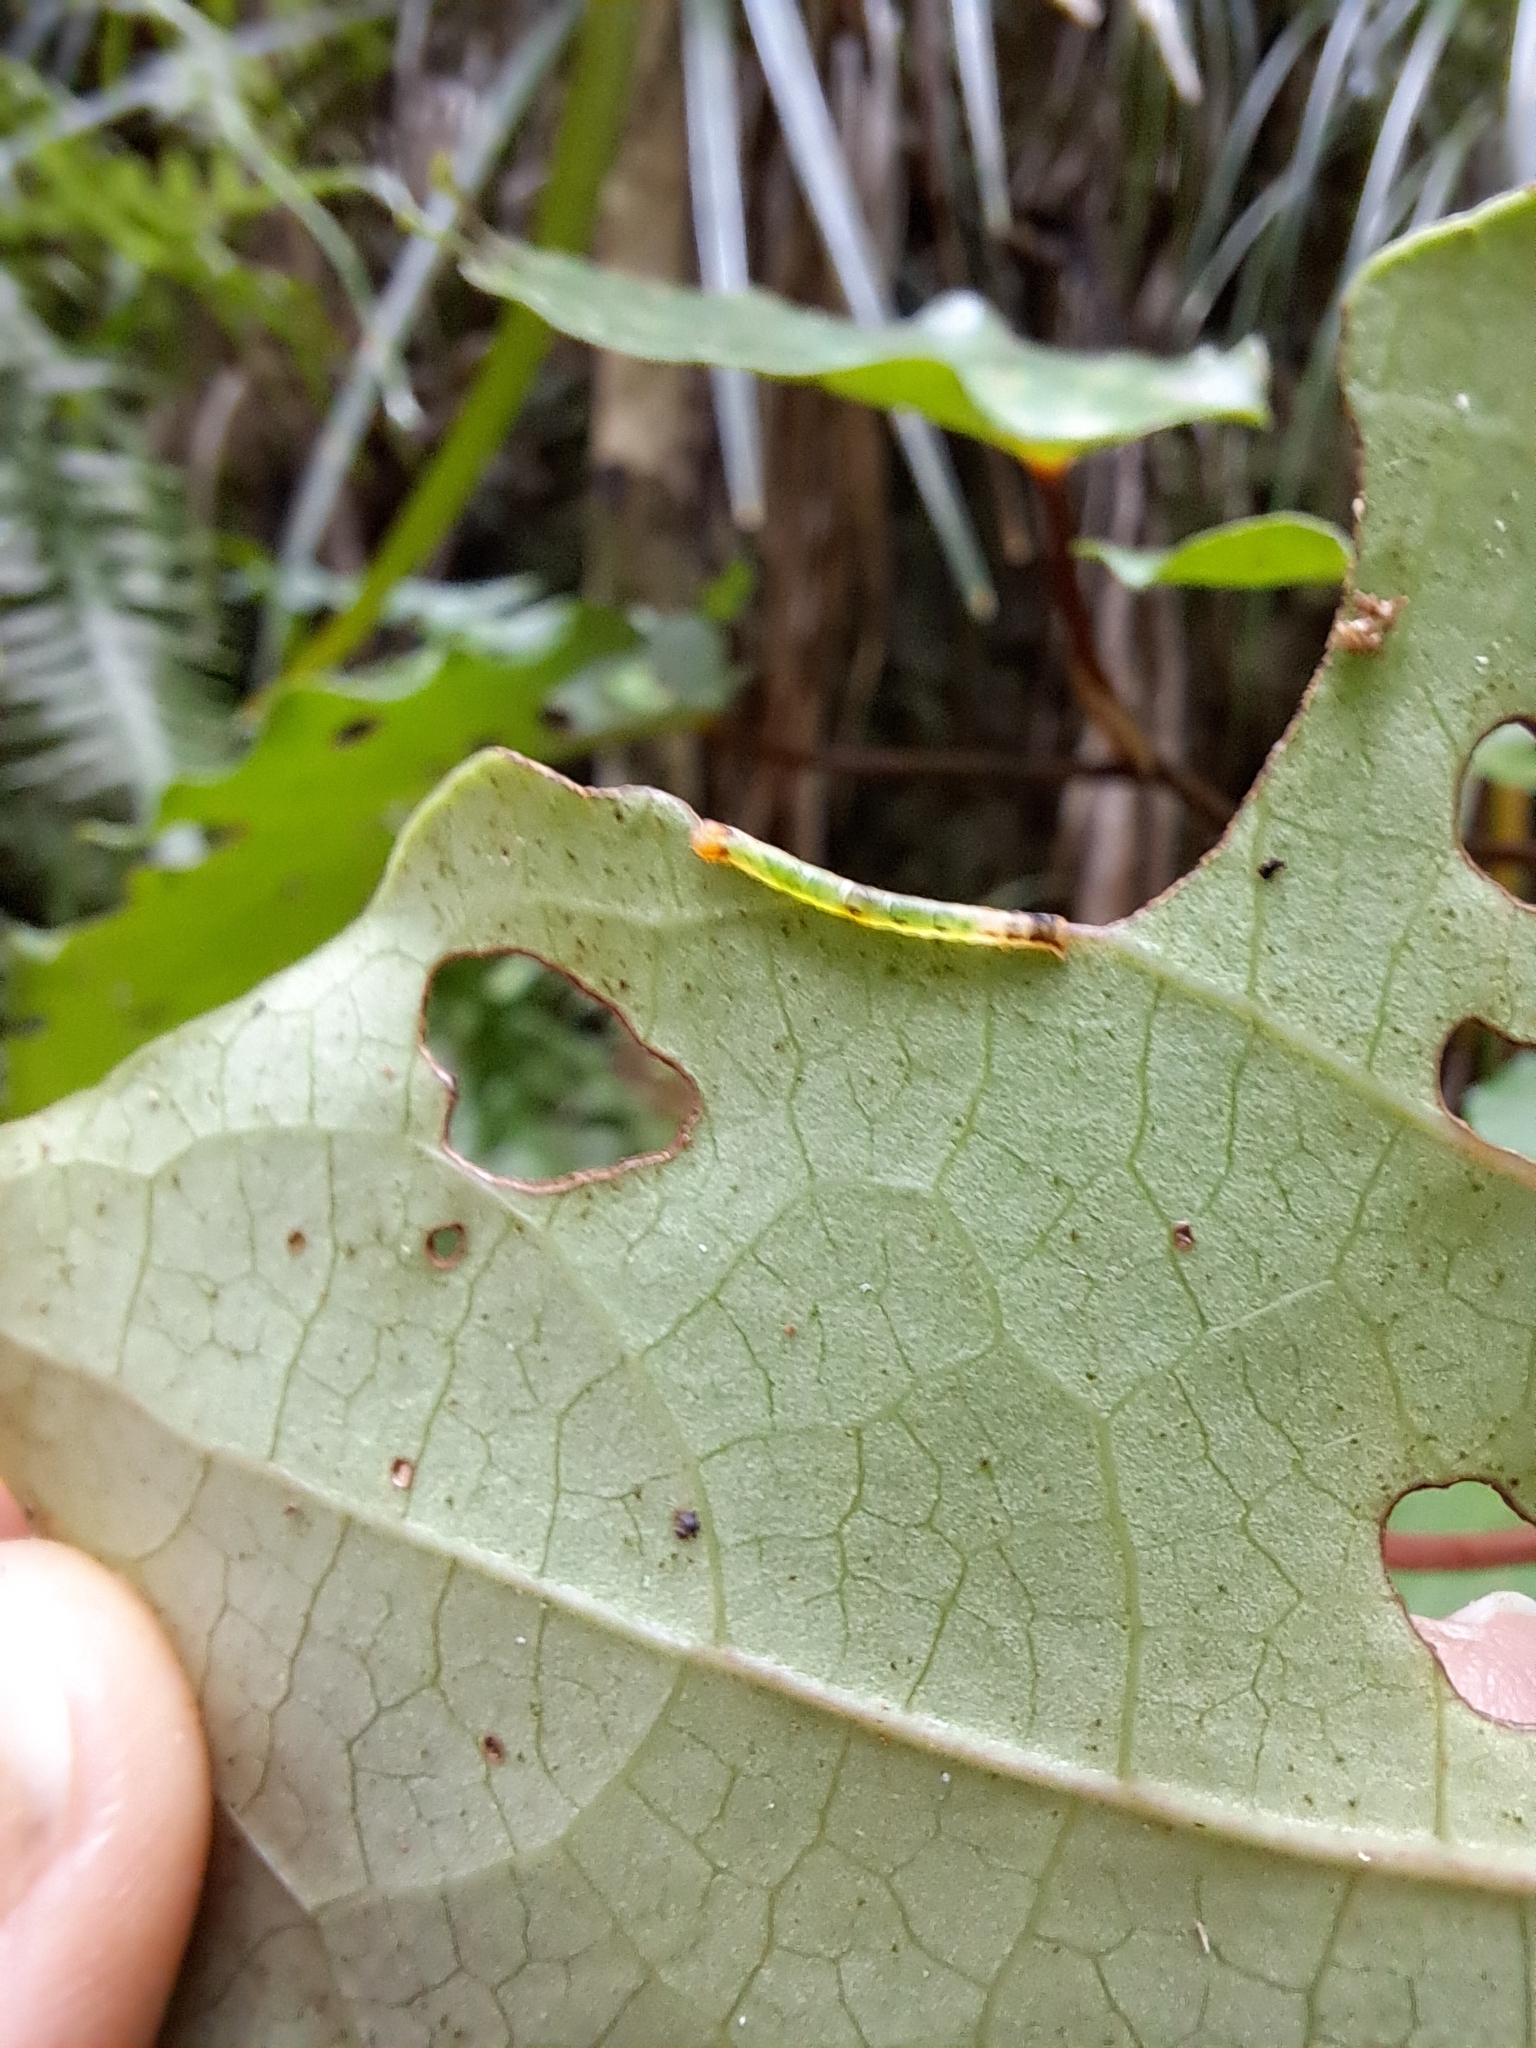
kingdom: Animalia
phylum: Arthropoda
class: Insecta
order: Lepidoptera
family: Geometridae
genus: Cleora
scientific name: Cleora scriptaria
